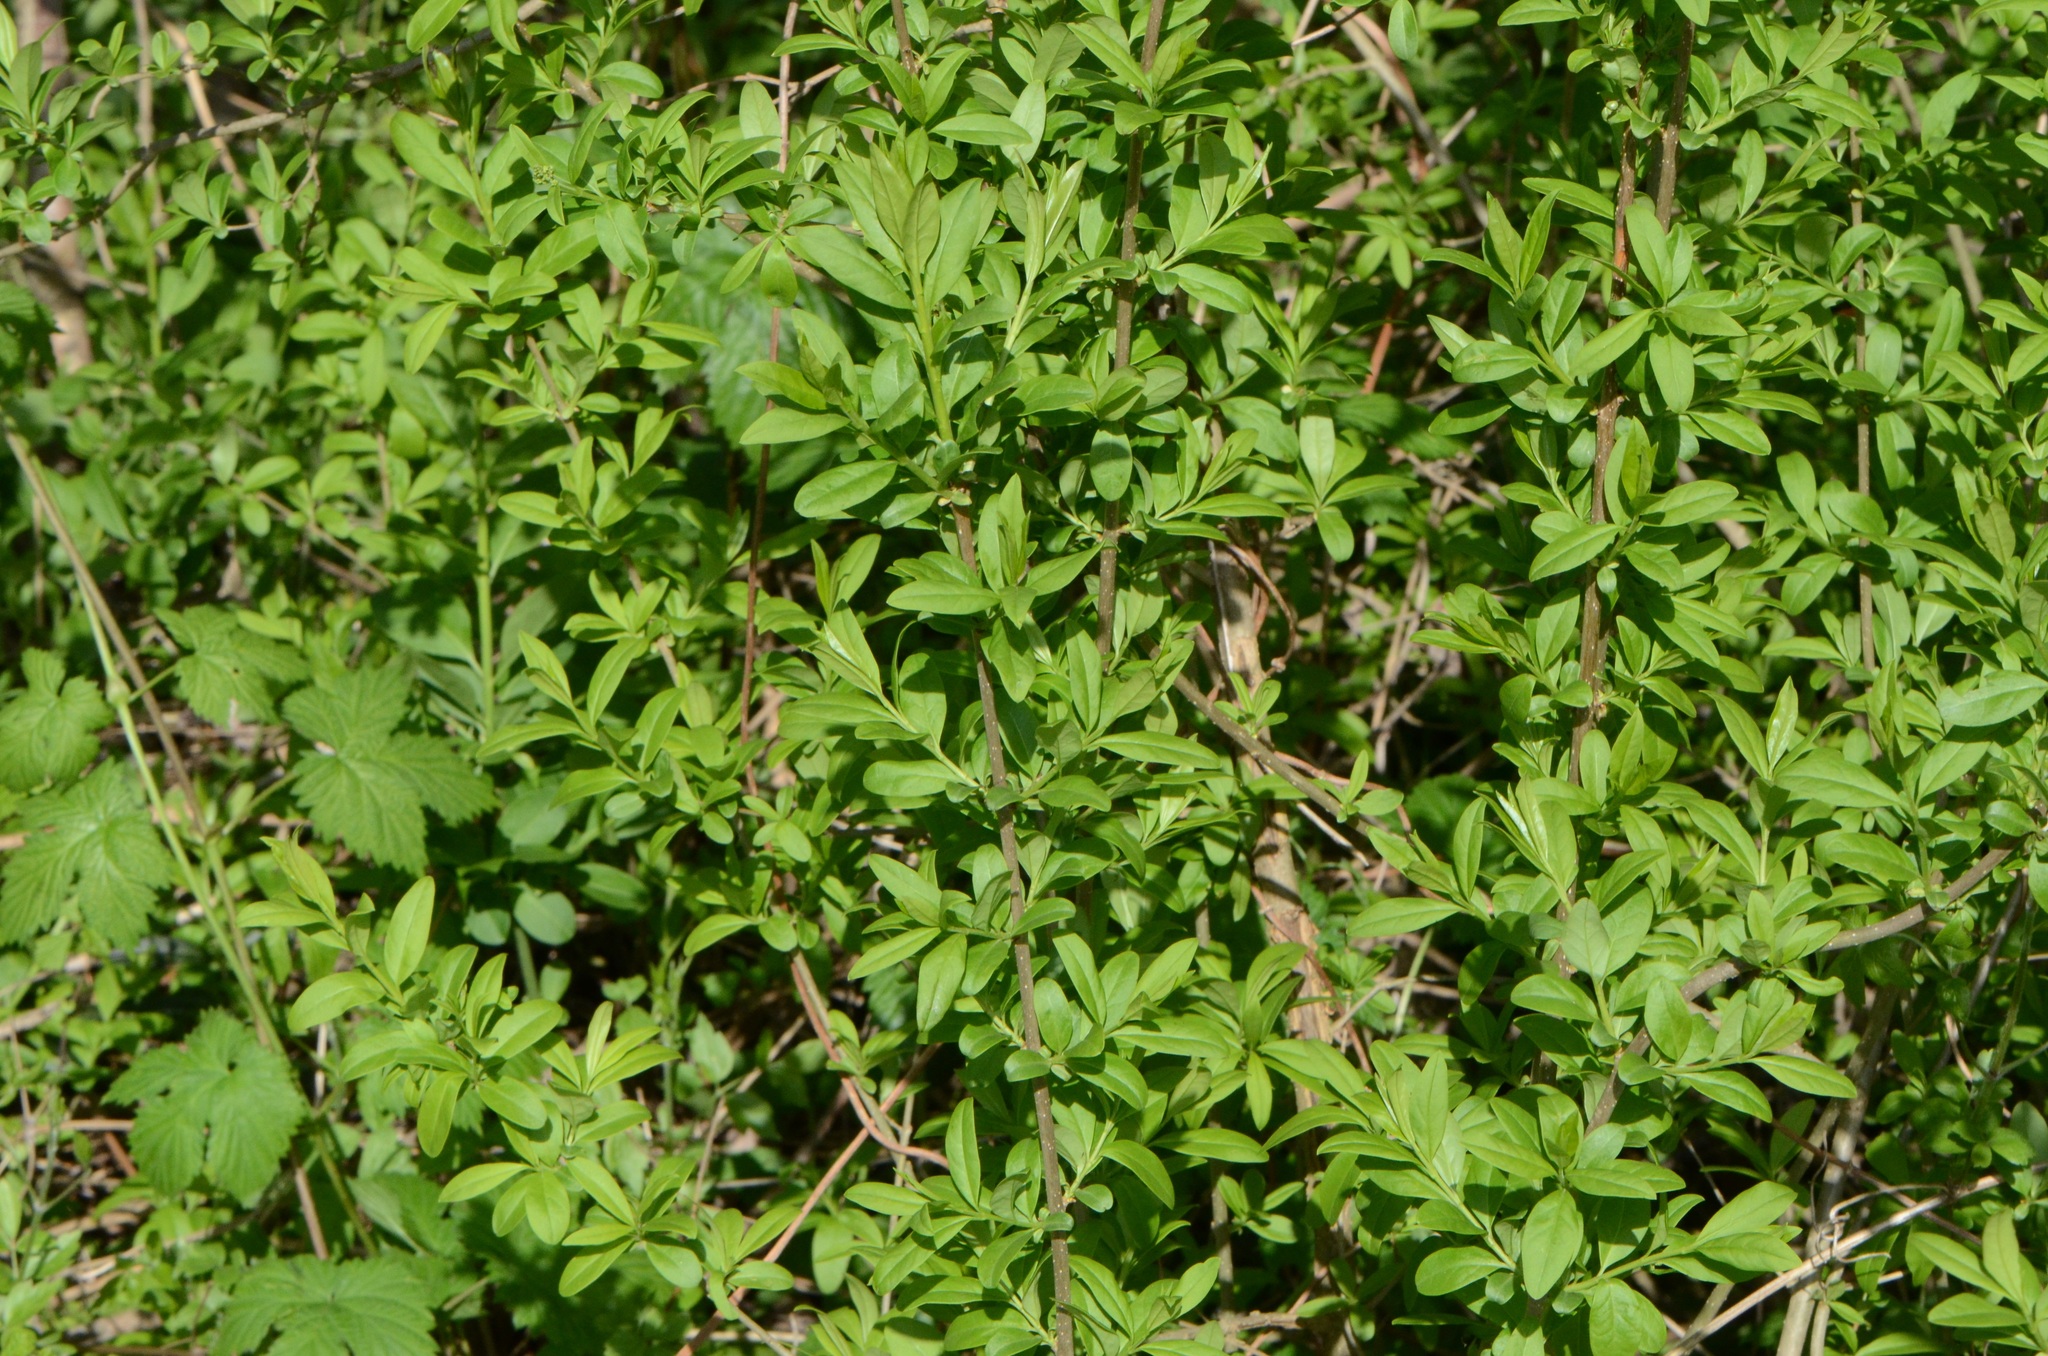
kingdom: Plantae
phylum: Tracheophyta
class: Magnoliopsida
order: Lamiales
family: Oleaceae
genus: Ligustrum
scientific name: Ligustrum vulgare
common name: Wild privet
